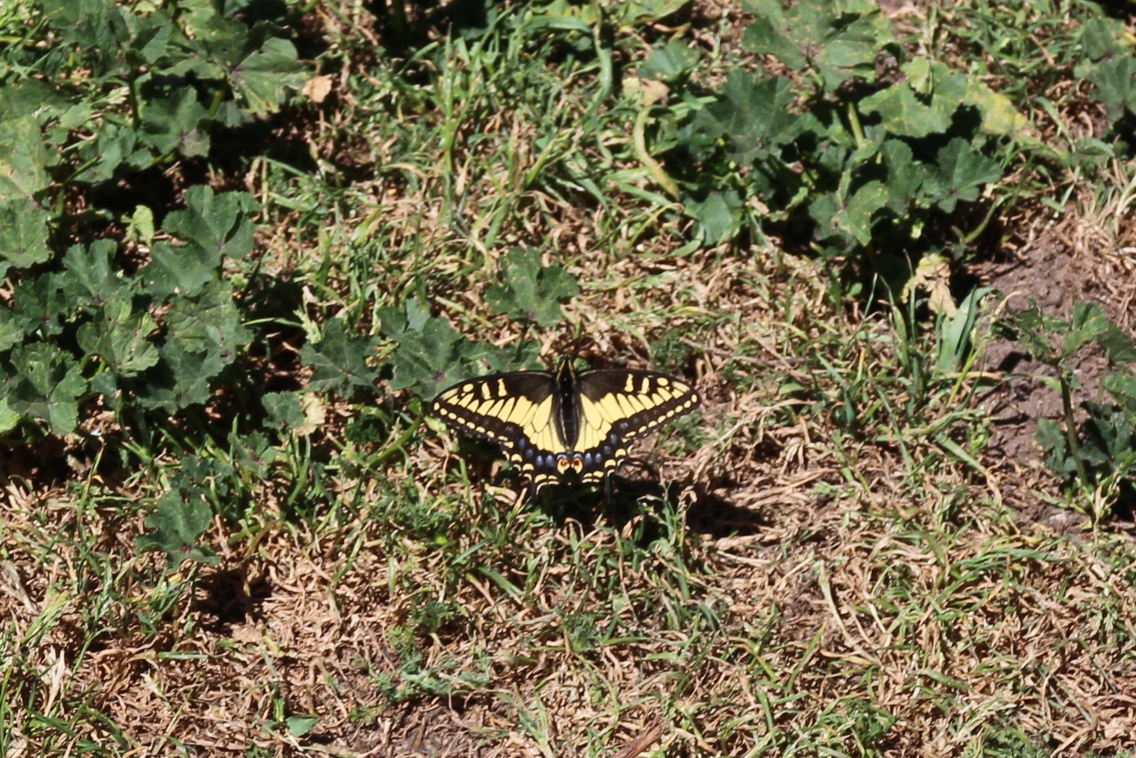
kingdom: Animalia
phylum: Arthropoda
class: Insecta
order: Lepidoptera
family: Papilionidae
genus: Papilio
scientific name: Papilio zelicaon
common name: Anise swallowtail
